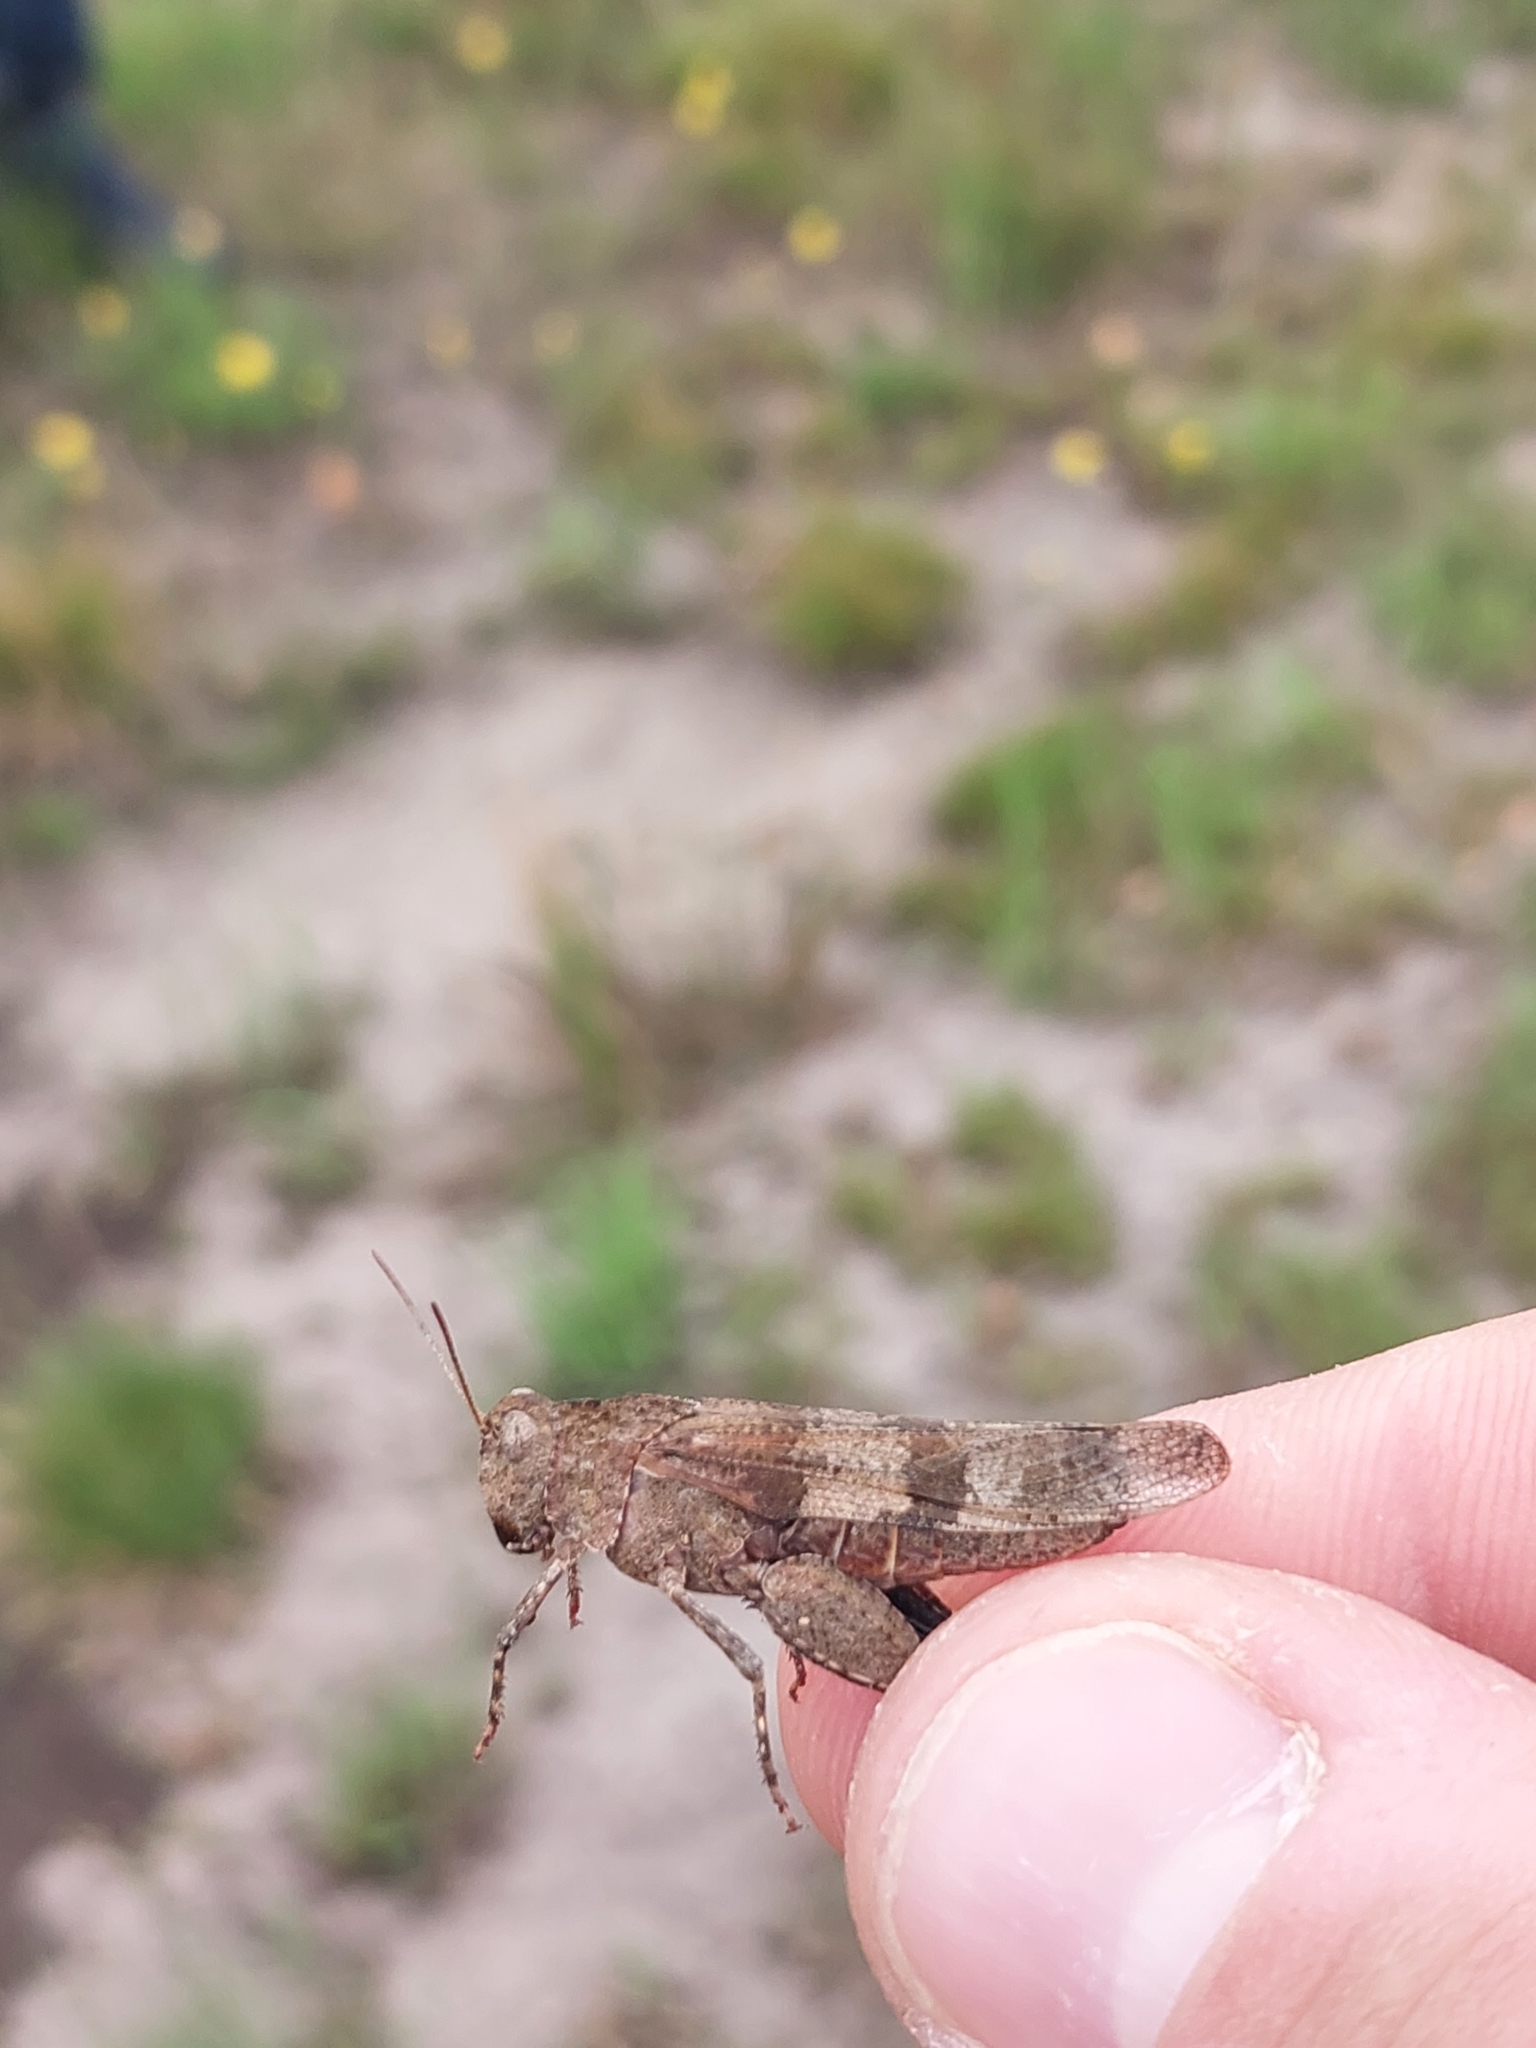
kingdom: Animalia
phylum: Arthropoda
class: Insecta
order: Orthoptera
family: Acrididae
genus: Oedipoda
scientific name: Oedipoda caerulescens
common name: Blue-winged grasshopper
